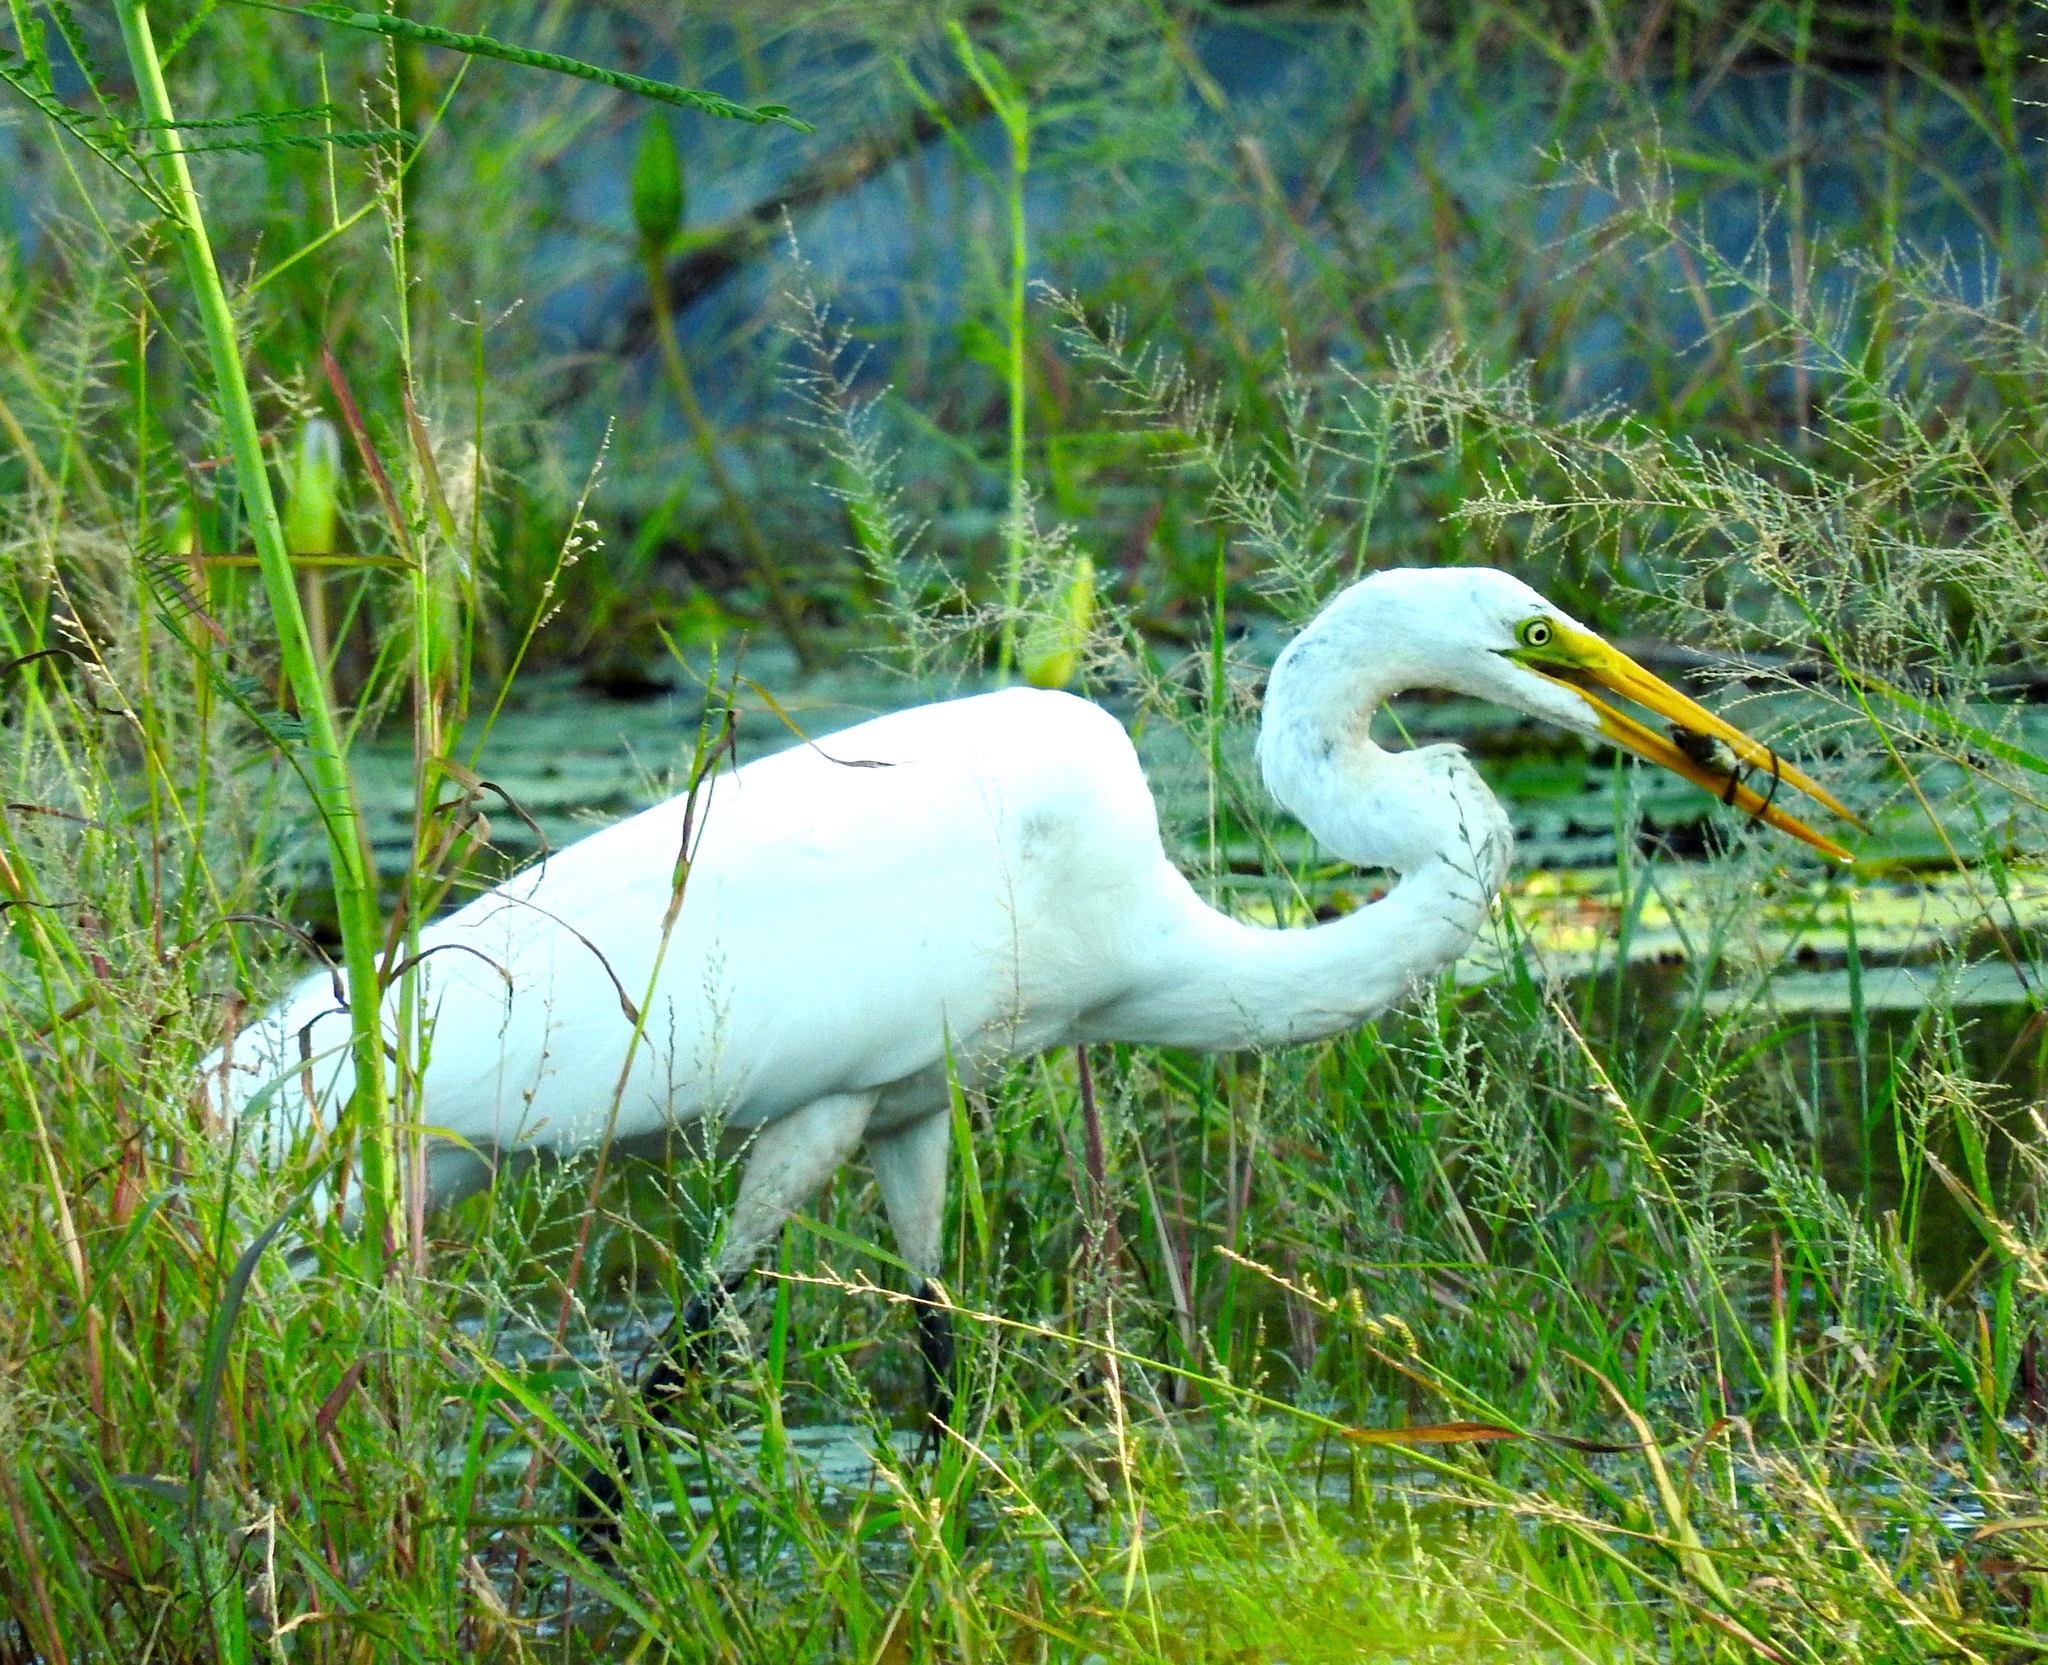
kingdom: Animalia
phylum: Chordata
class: Aves
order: Pelecaniformes
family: Ardeidae
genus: Ardea
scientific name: Ardea alba
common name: Great egret
